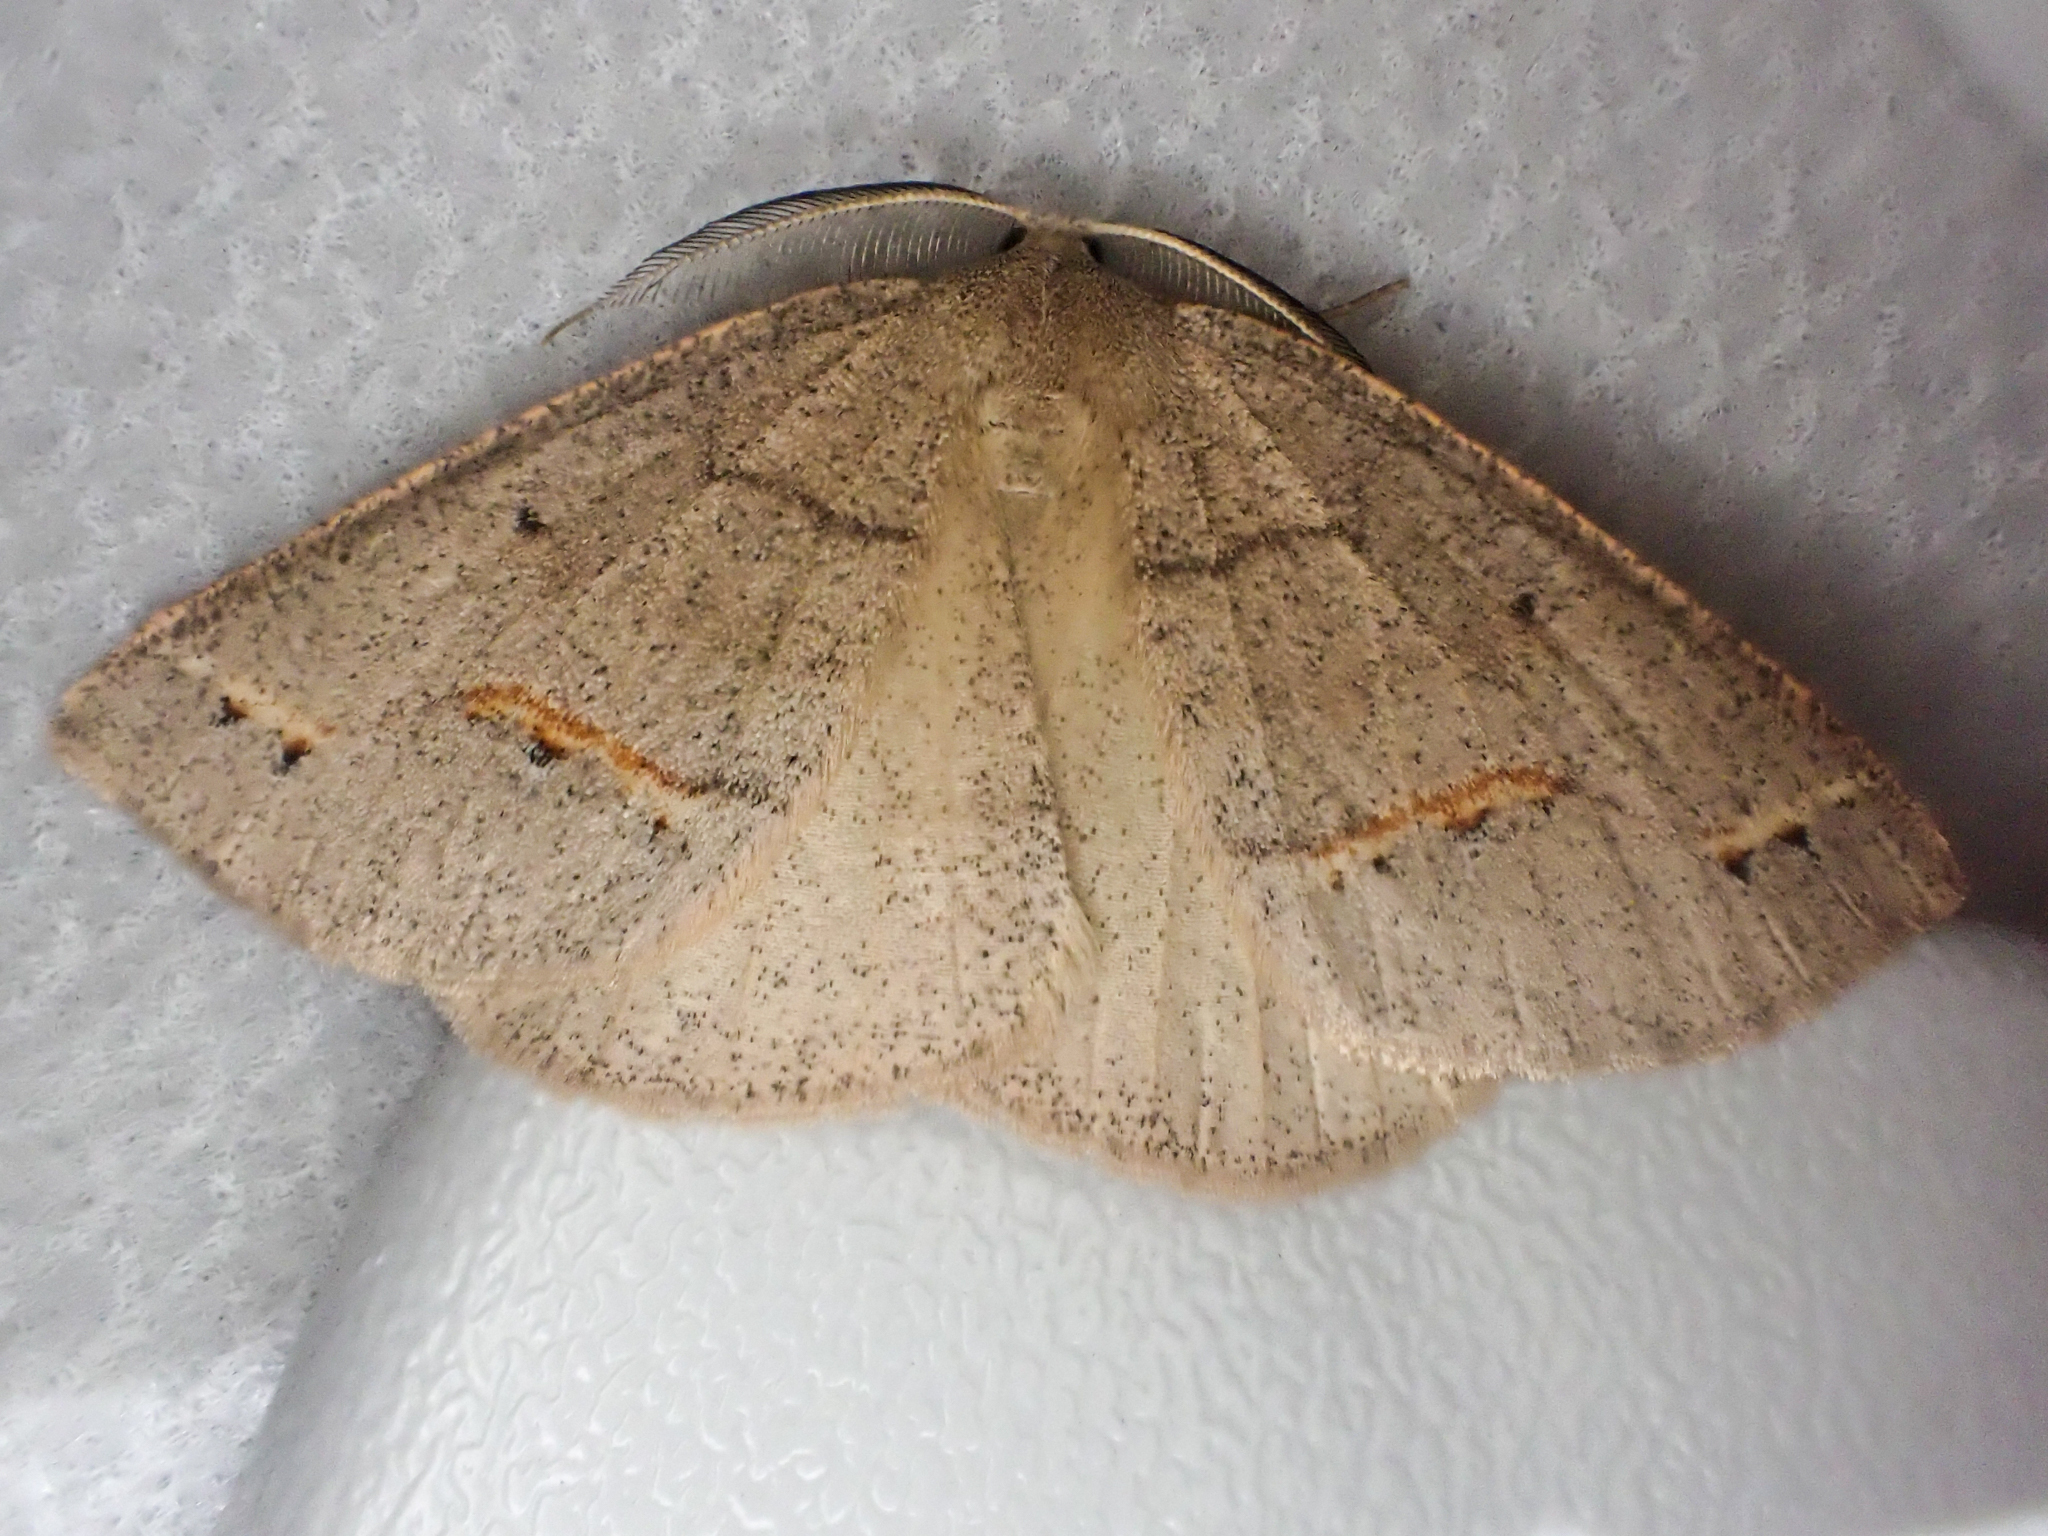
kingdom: Animalia
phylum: Arthropoda
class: Insecta
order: Lepidoptera
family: Geometridae
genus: Drepanulatrix
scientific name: Drepanulatrix unicalcararia
